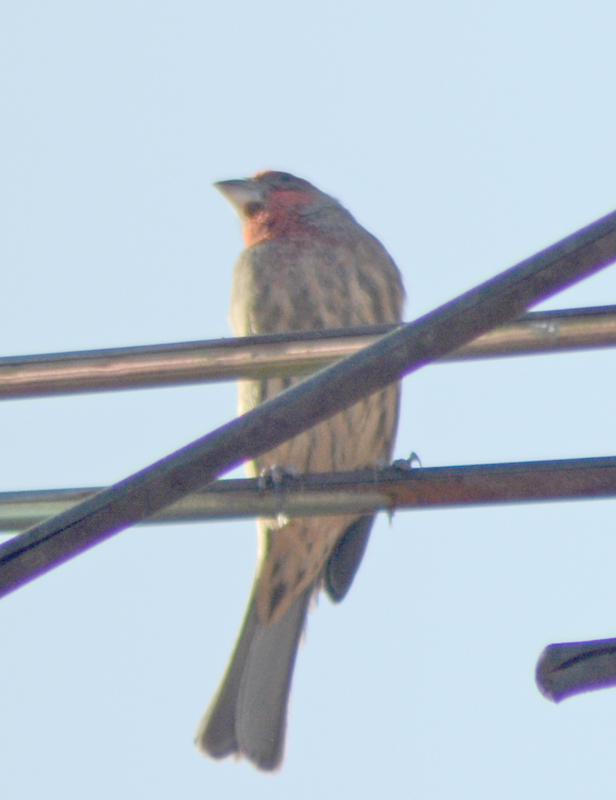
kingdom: Animalia
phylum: Chordata
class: Aves
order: Passeriformes
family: Fringillidae
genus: Haemorhous
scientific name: Haemorhous mexicanus
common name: House finch
